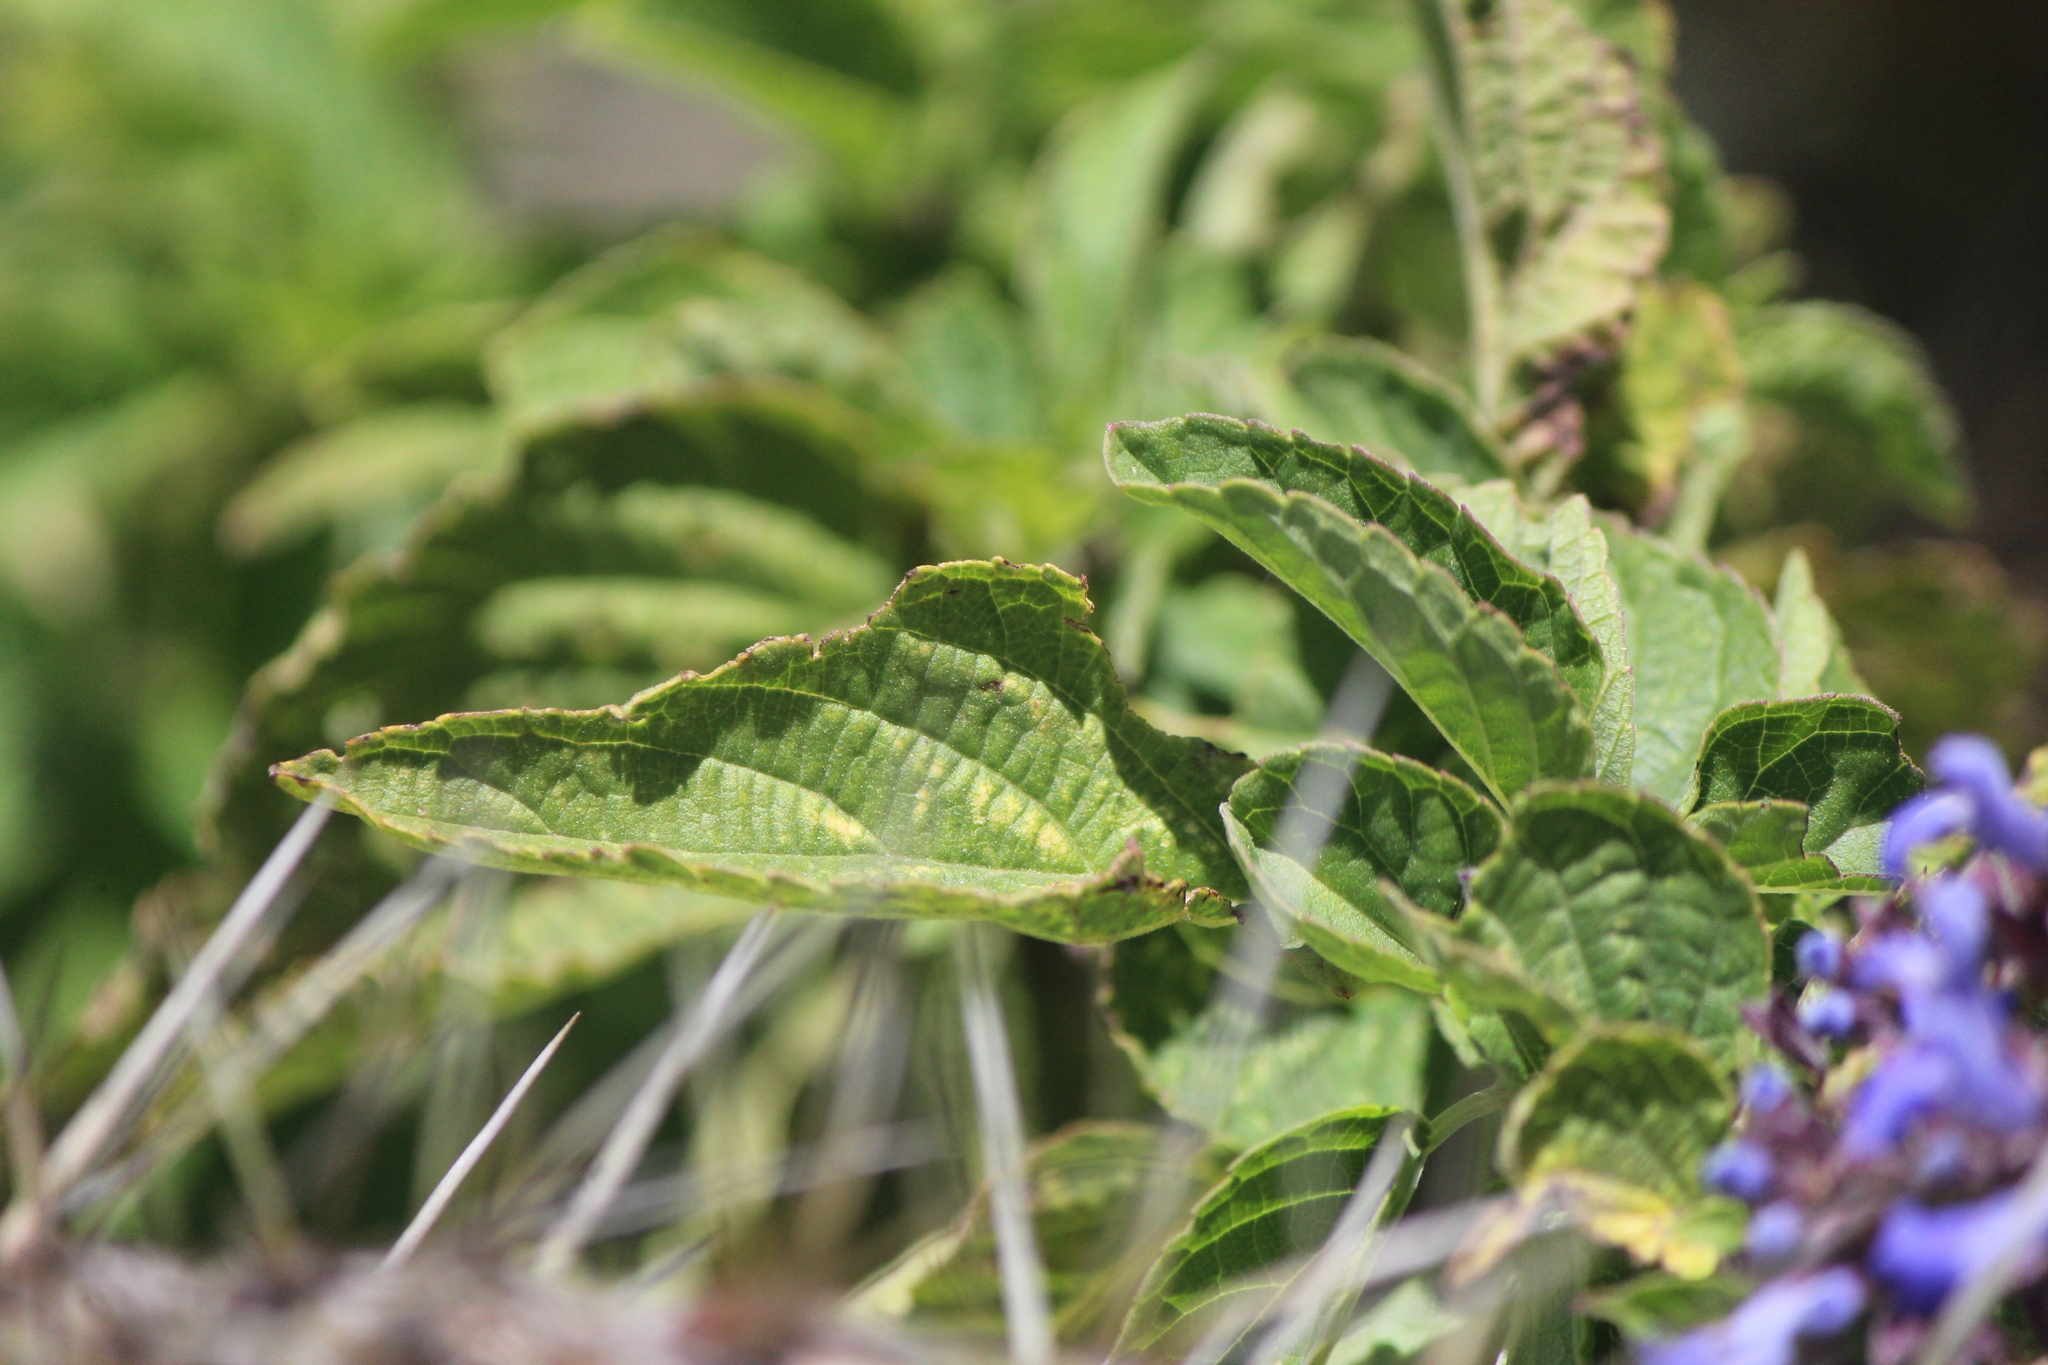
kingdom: Plantae
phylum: Tracheophyta
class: Magnoliopsida
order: Lamiales
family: Lamiaceae
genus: Salvia
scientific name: Salvia polystachia
